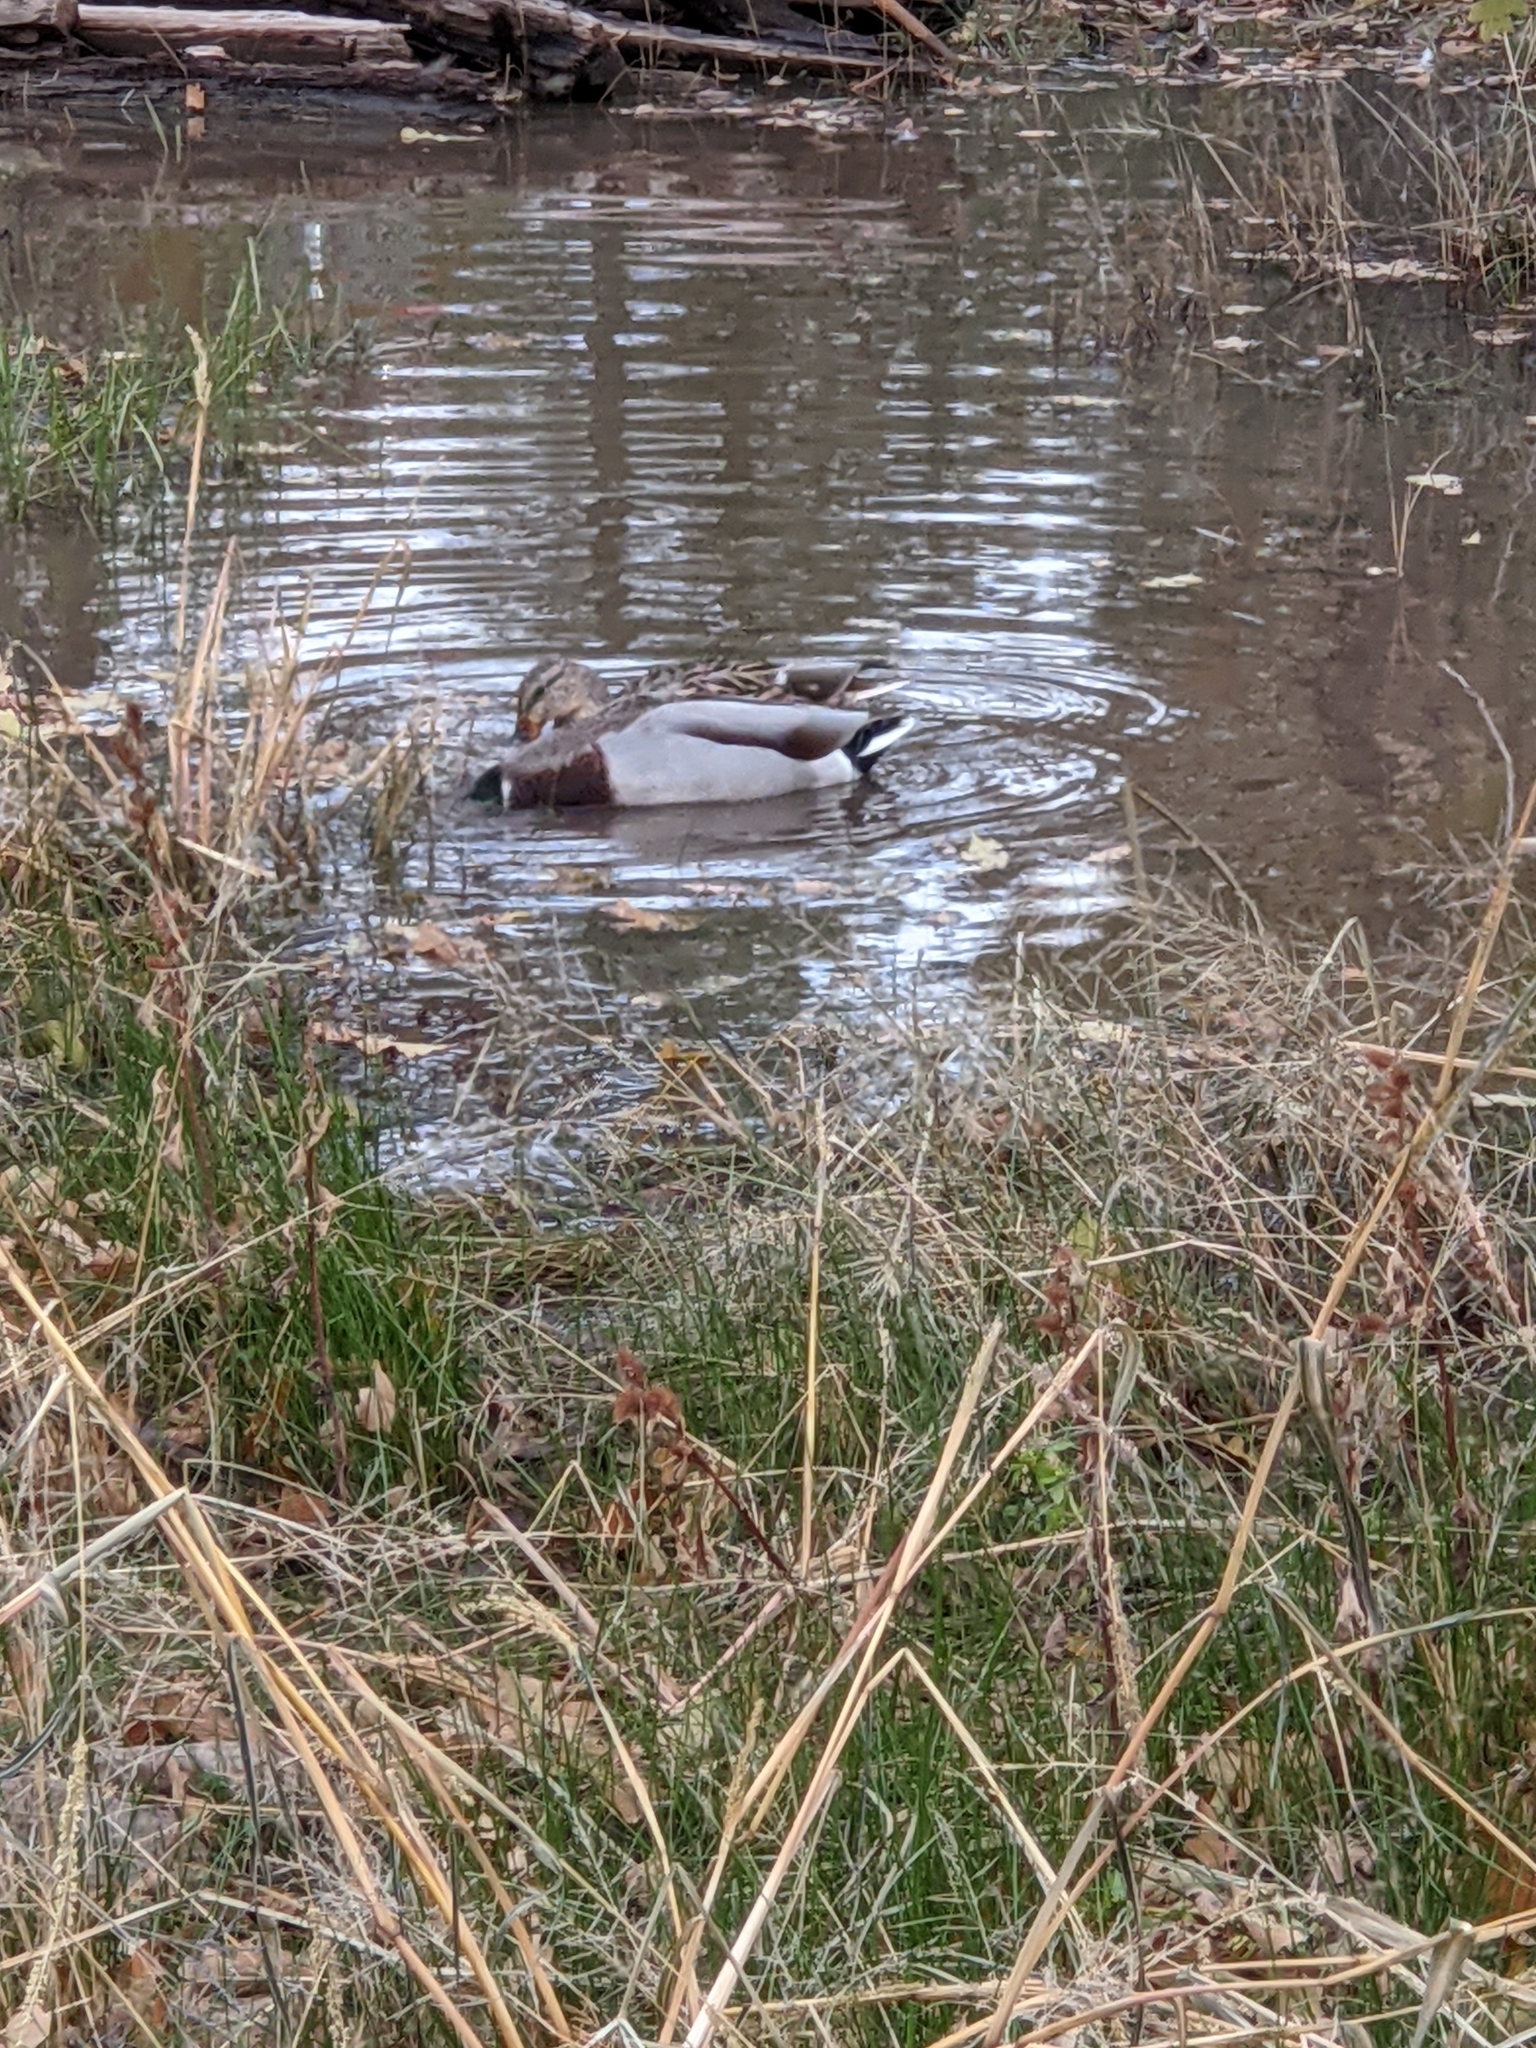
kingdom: Animalia
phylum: Chordata
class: Aves
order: Anseriformes
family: Anatidae
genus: Anas
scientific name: Anas platyrhynchos
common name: Mallard
